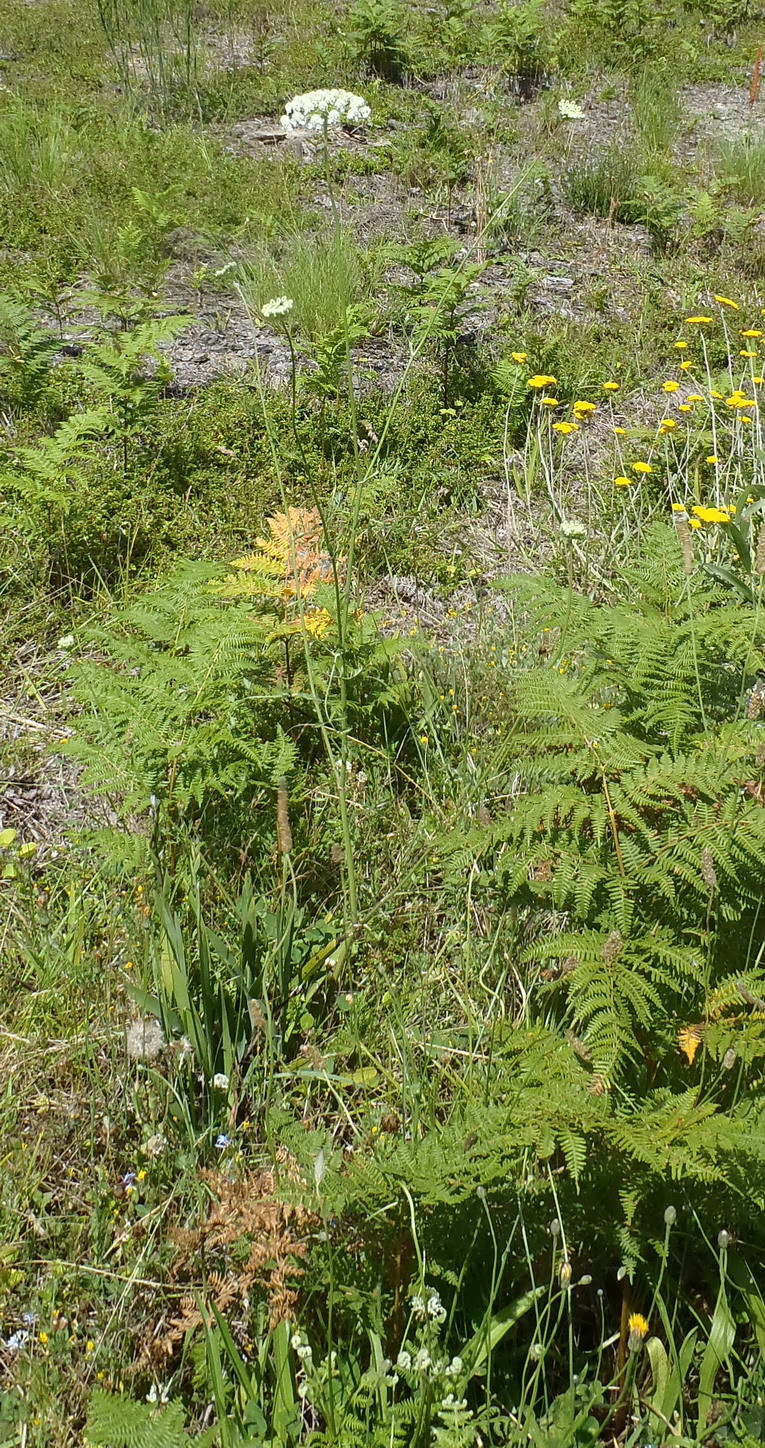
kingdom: Plantae
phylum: Tracheophyta
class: Magnoliopsida
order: Apiales
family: Apiaceae
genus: Daucus
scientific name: Daucus carota
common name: Wild carrot
